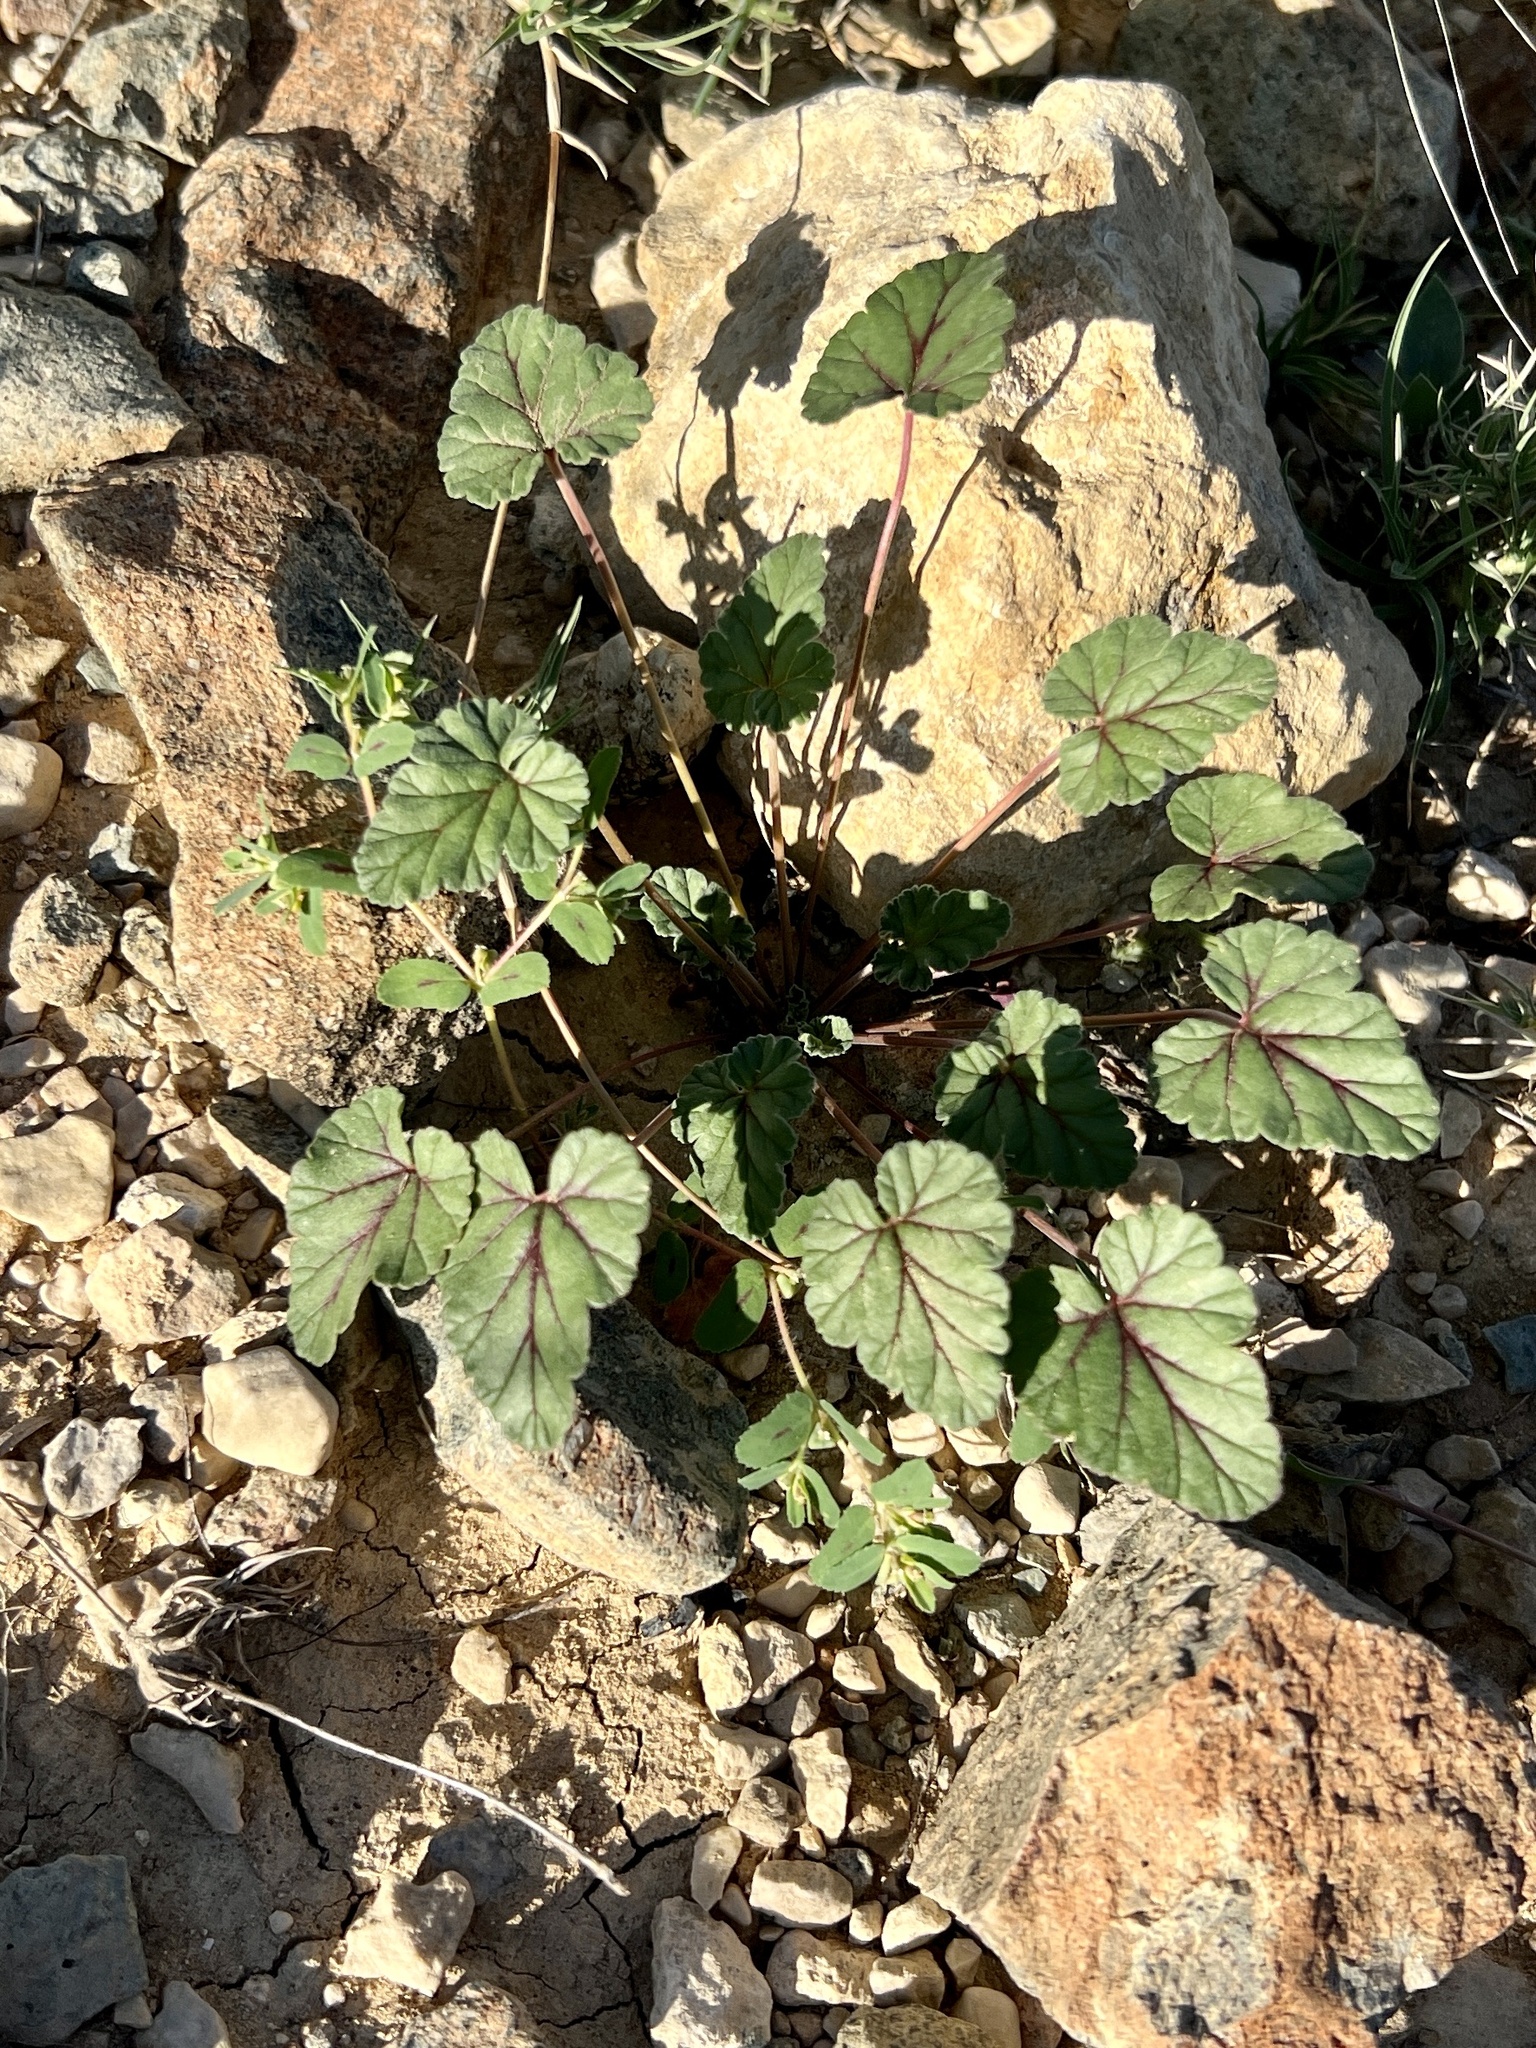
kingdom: Plantae
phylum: Tracheophyta
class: Magnoliopsida
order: Geraniales
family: Geraniaceae
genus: Erodium
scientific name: Erodium texanum
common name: Texas stork's-bill
